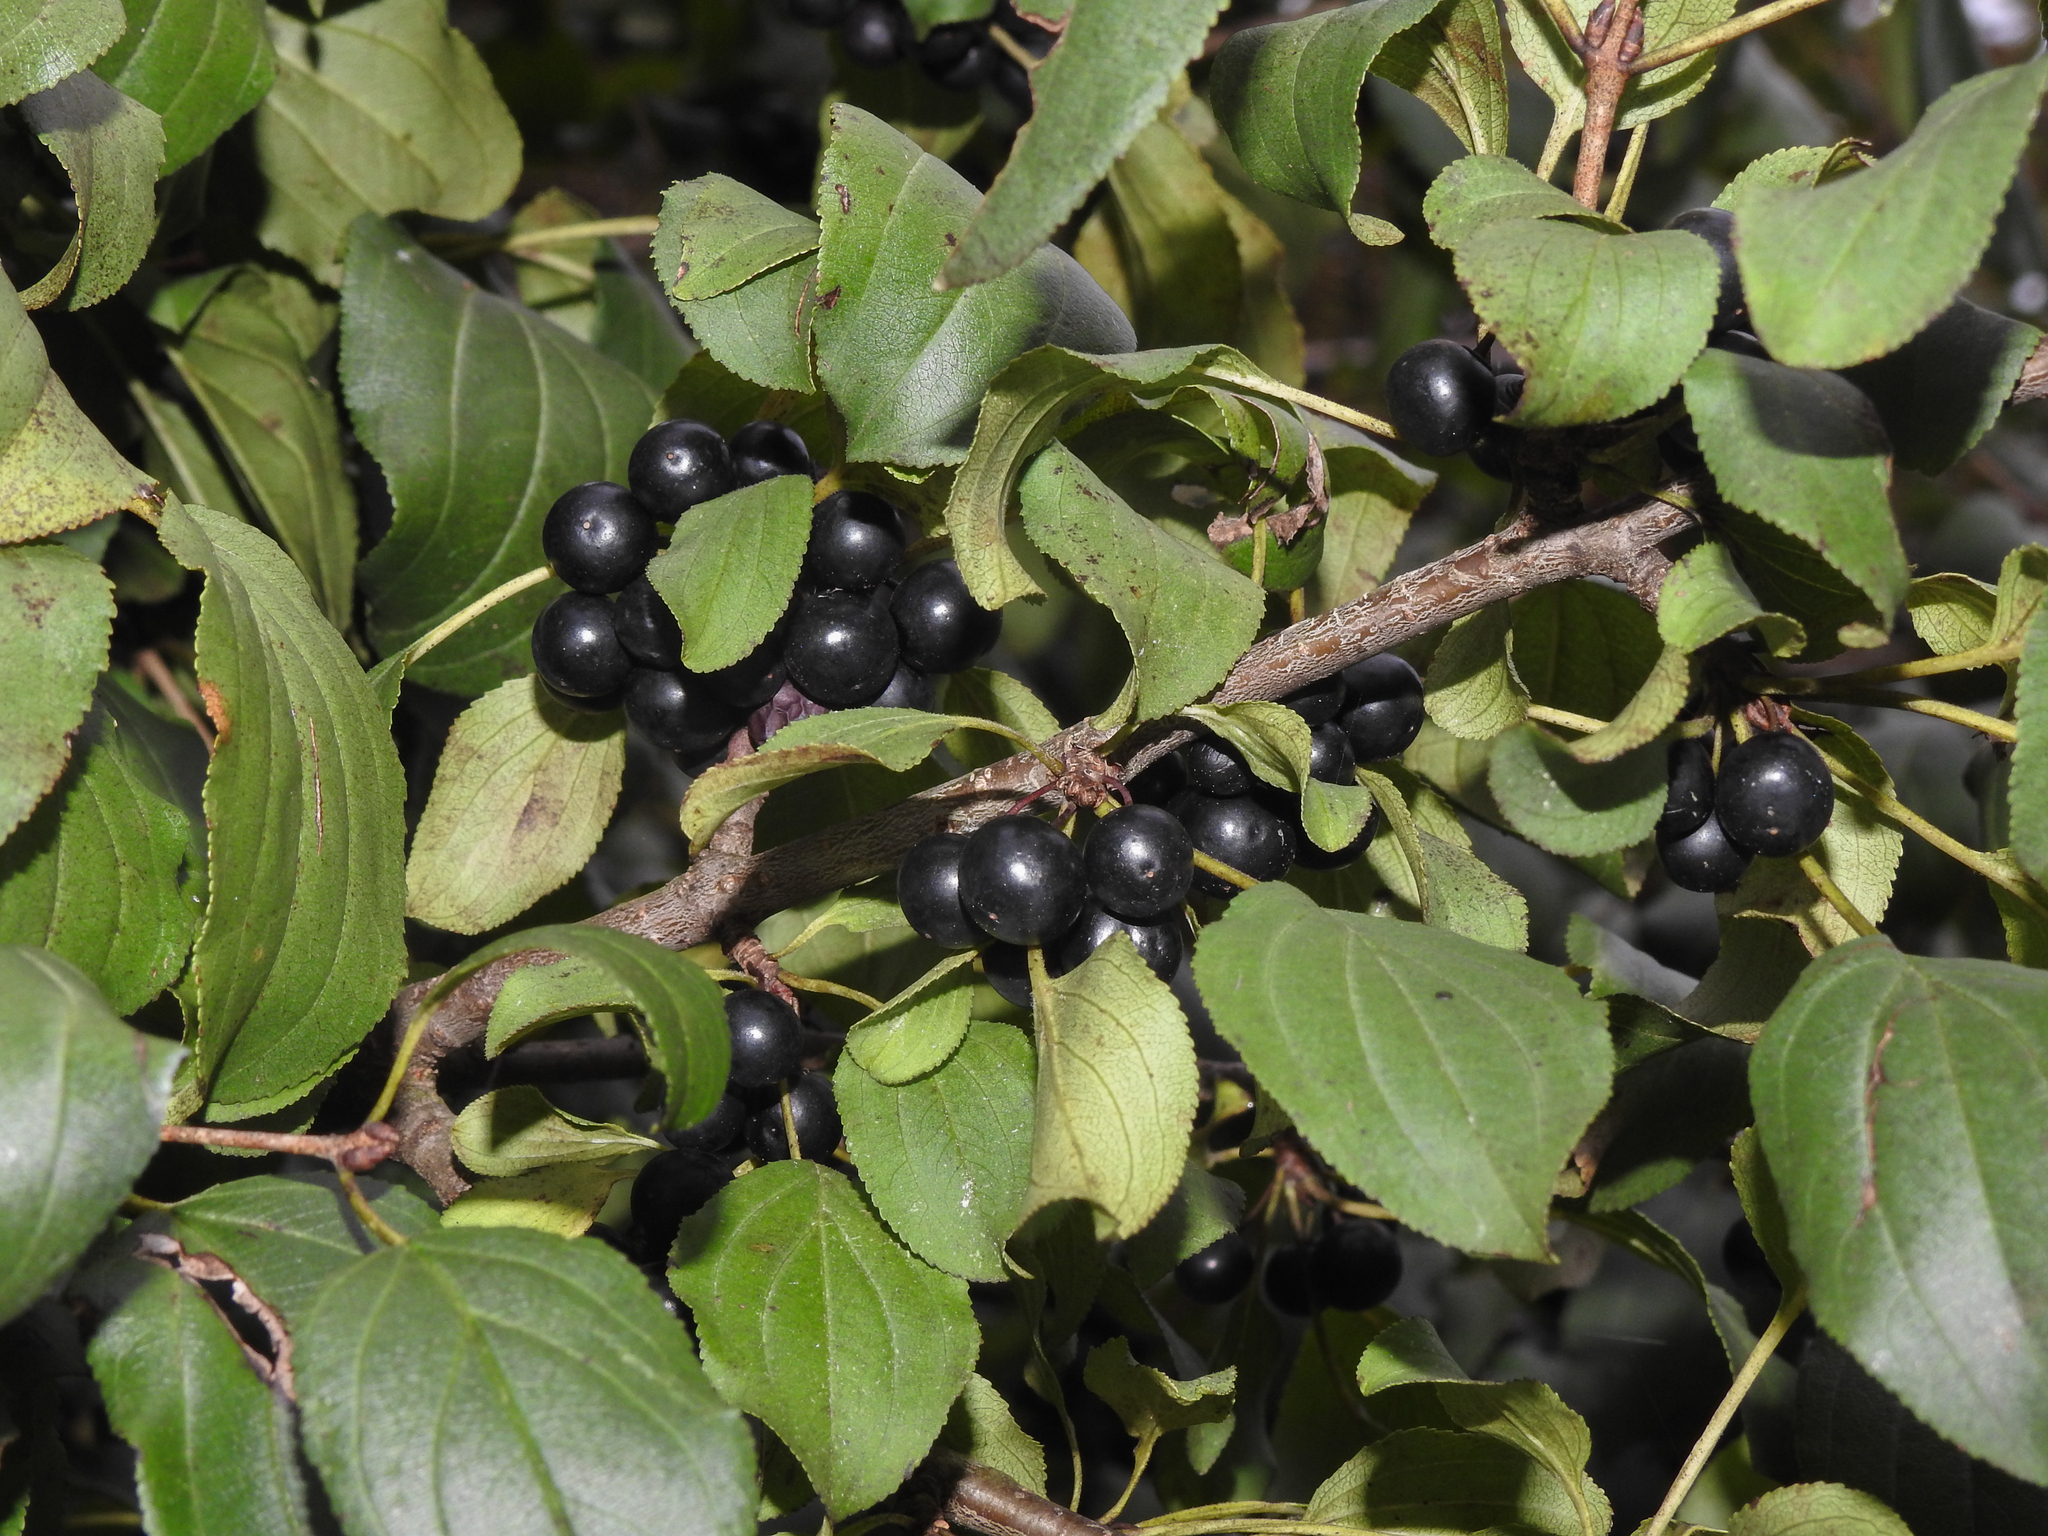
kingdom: Plantae
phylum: Tracheophyta
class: Magnoliopsida
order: Rosales
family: Rhamnaceae
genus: Rhamnus
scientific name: Rhamnus cathartica
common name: Common buckthorn
